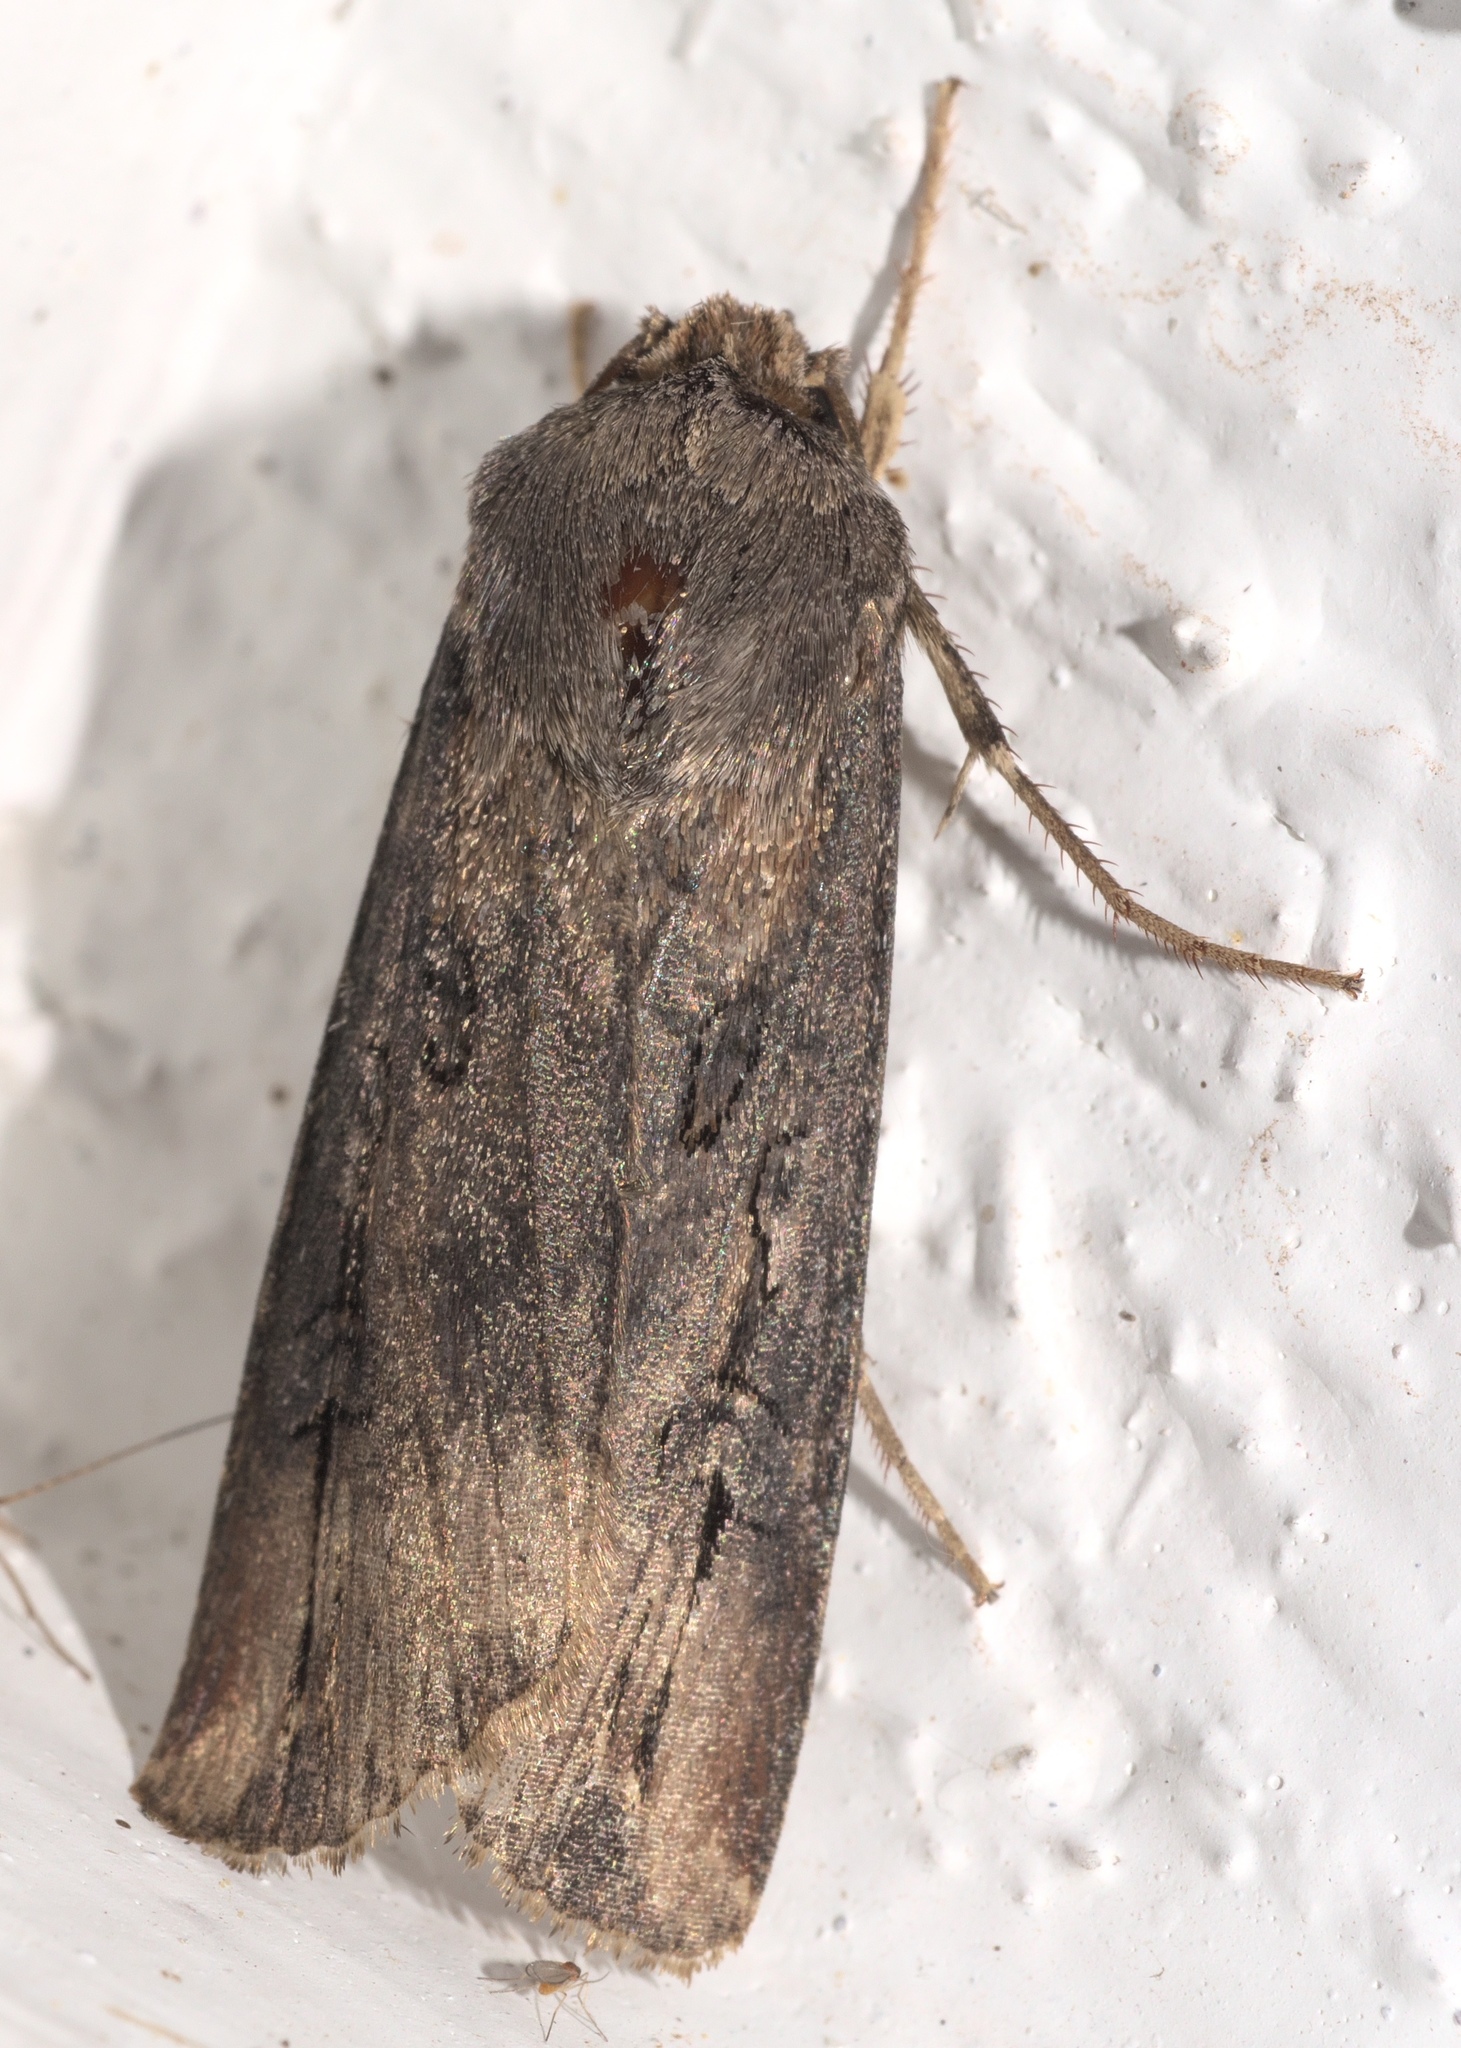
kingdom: Animalia
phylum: Arthropoda
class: Insecta
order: Lepidoptera
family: Noctuidae
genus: Agrotis
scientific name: Agrotis ipsilon
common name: Dark sword-grass
